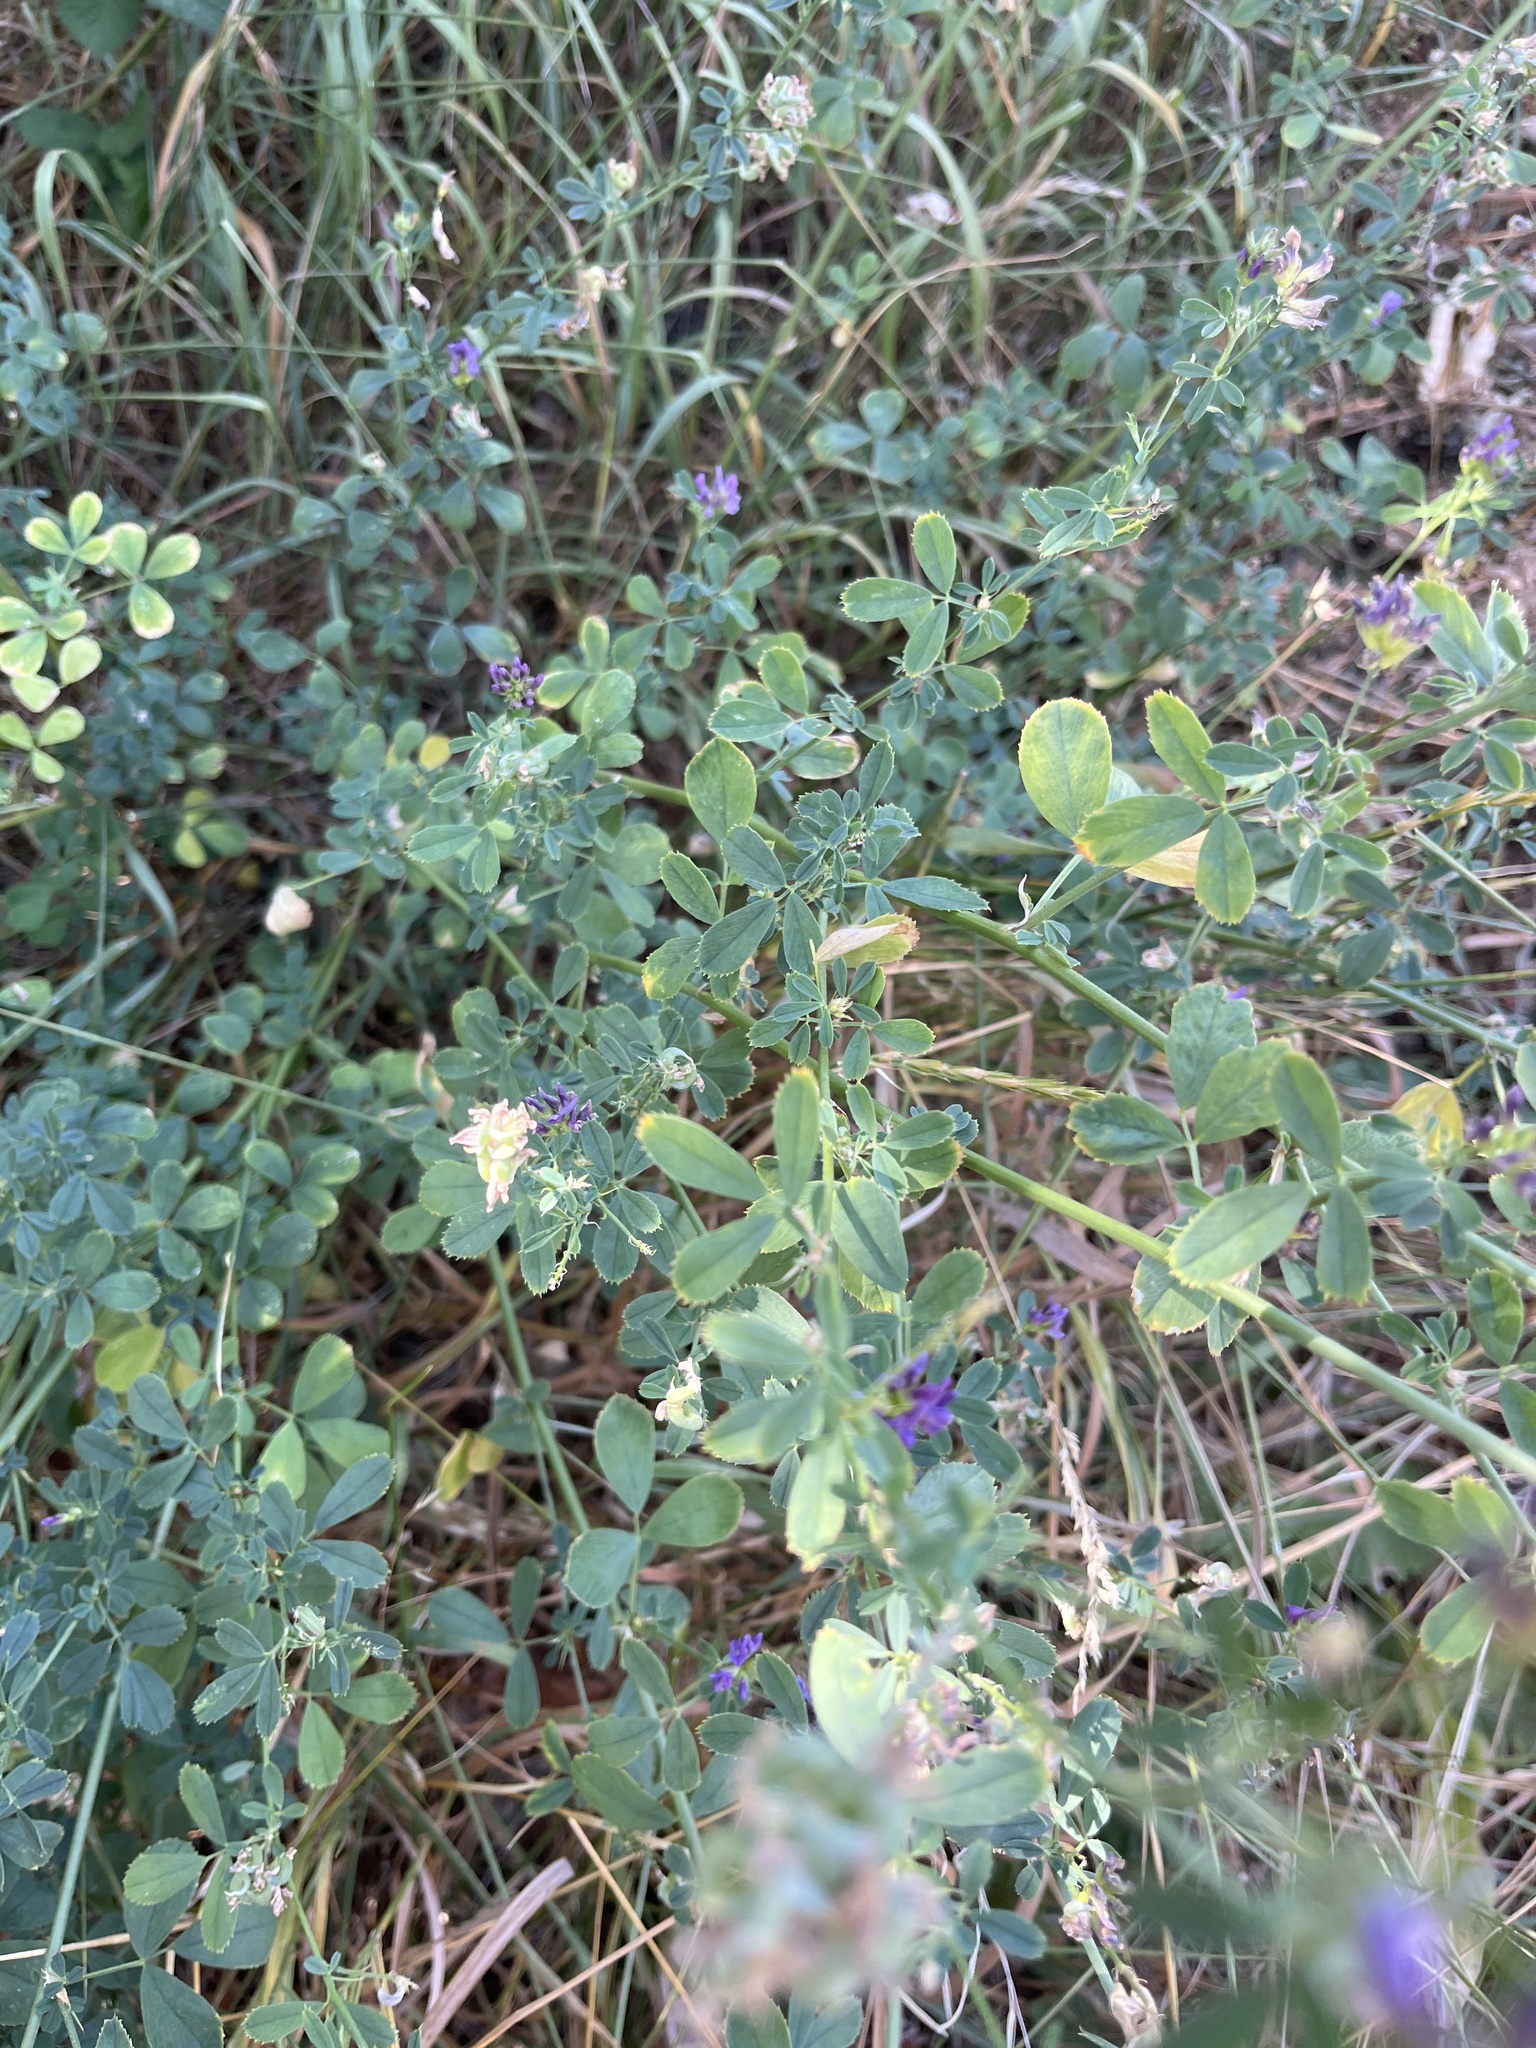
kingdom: Plantae
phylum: Tracheophyta
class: Magnoliopsida
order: Fabales
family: Fabaceae
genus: Medicago
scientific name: Medicago sativa
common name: Alfalfa
